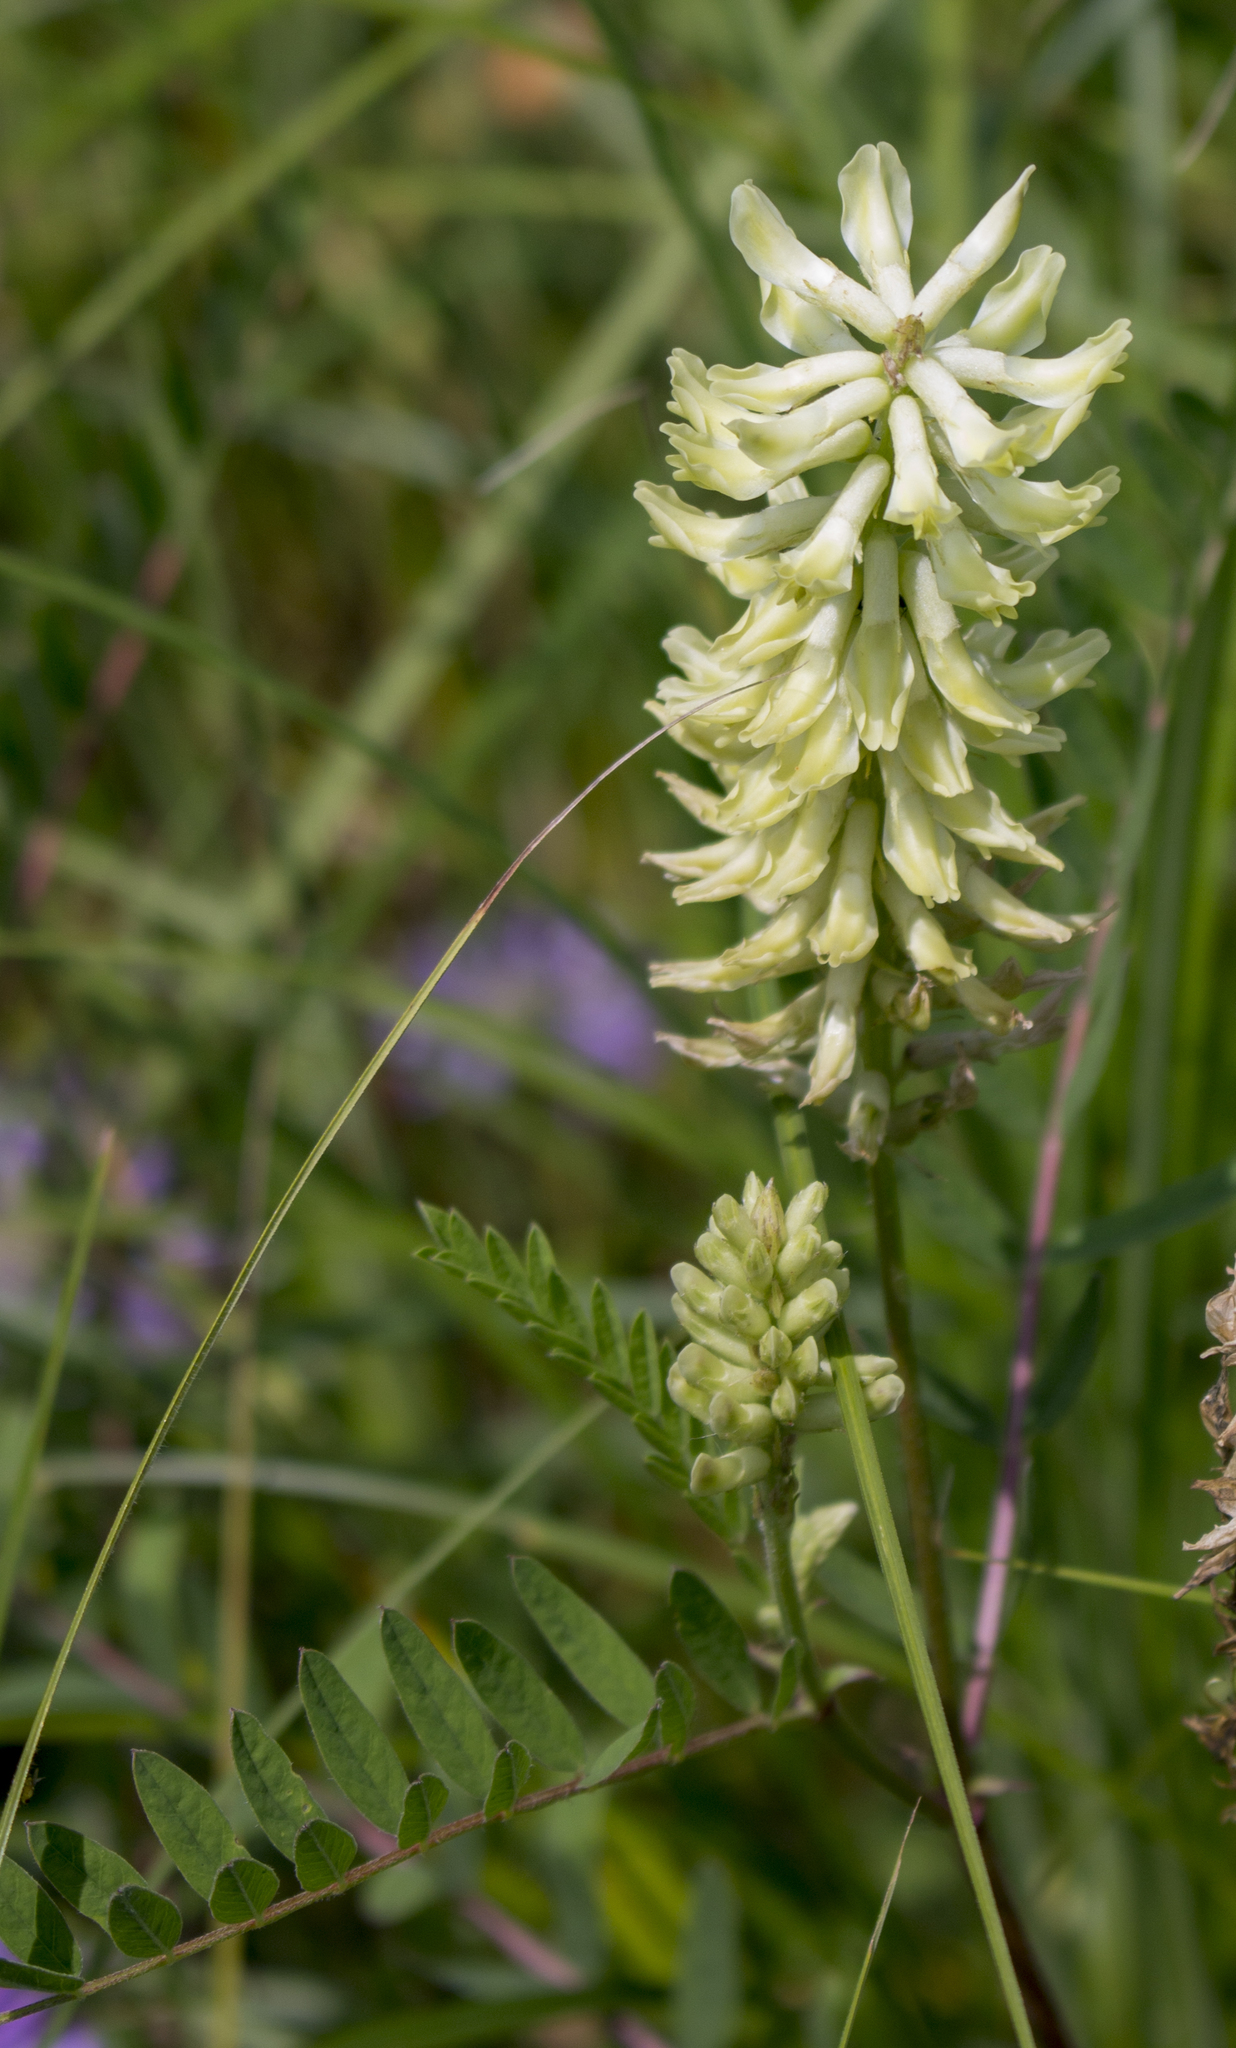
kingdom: Plantae
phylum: Tracheophyta
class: Magnoliopsida
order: Fabales
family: Fabaceae
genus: Astragalus
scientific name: Astragalus canadensis
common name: Canada milk-vetch
